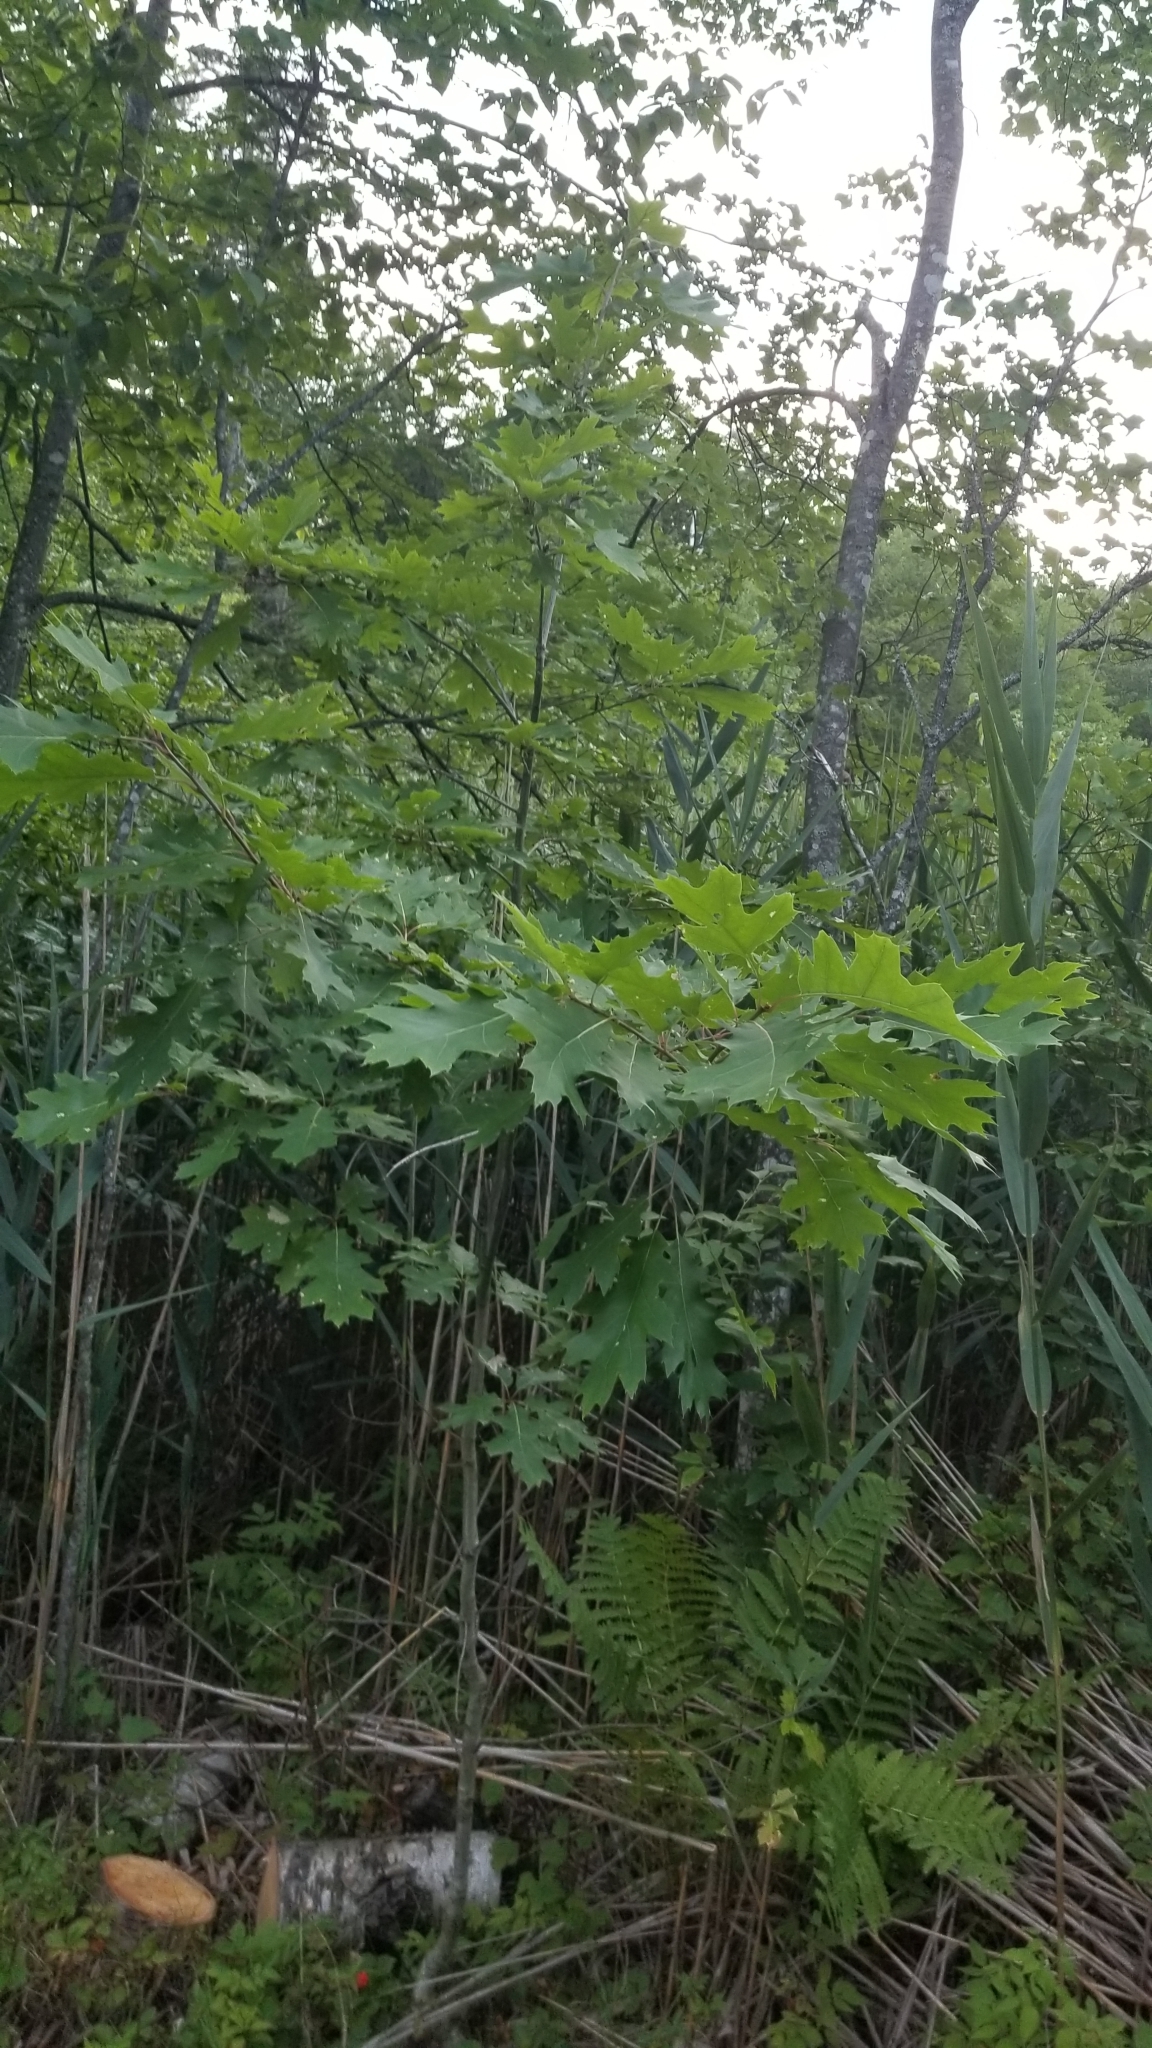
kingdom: Plantae
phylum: Tracheophyta
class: Magnoliopsida
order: Fagales
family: Fagaceae
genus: Quercus
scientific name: Quercus rubra
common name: Red oak
